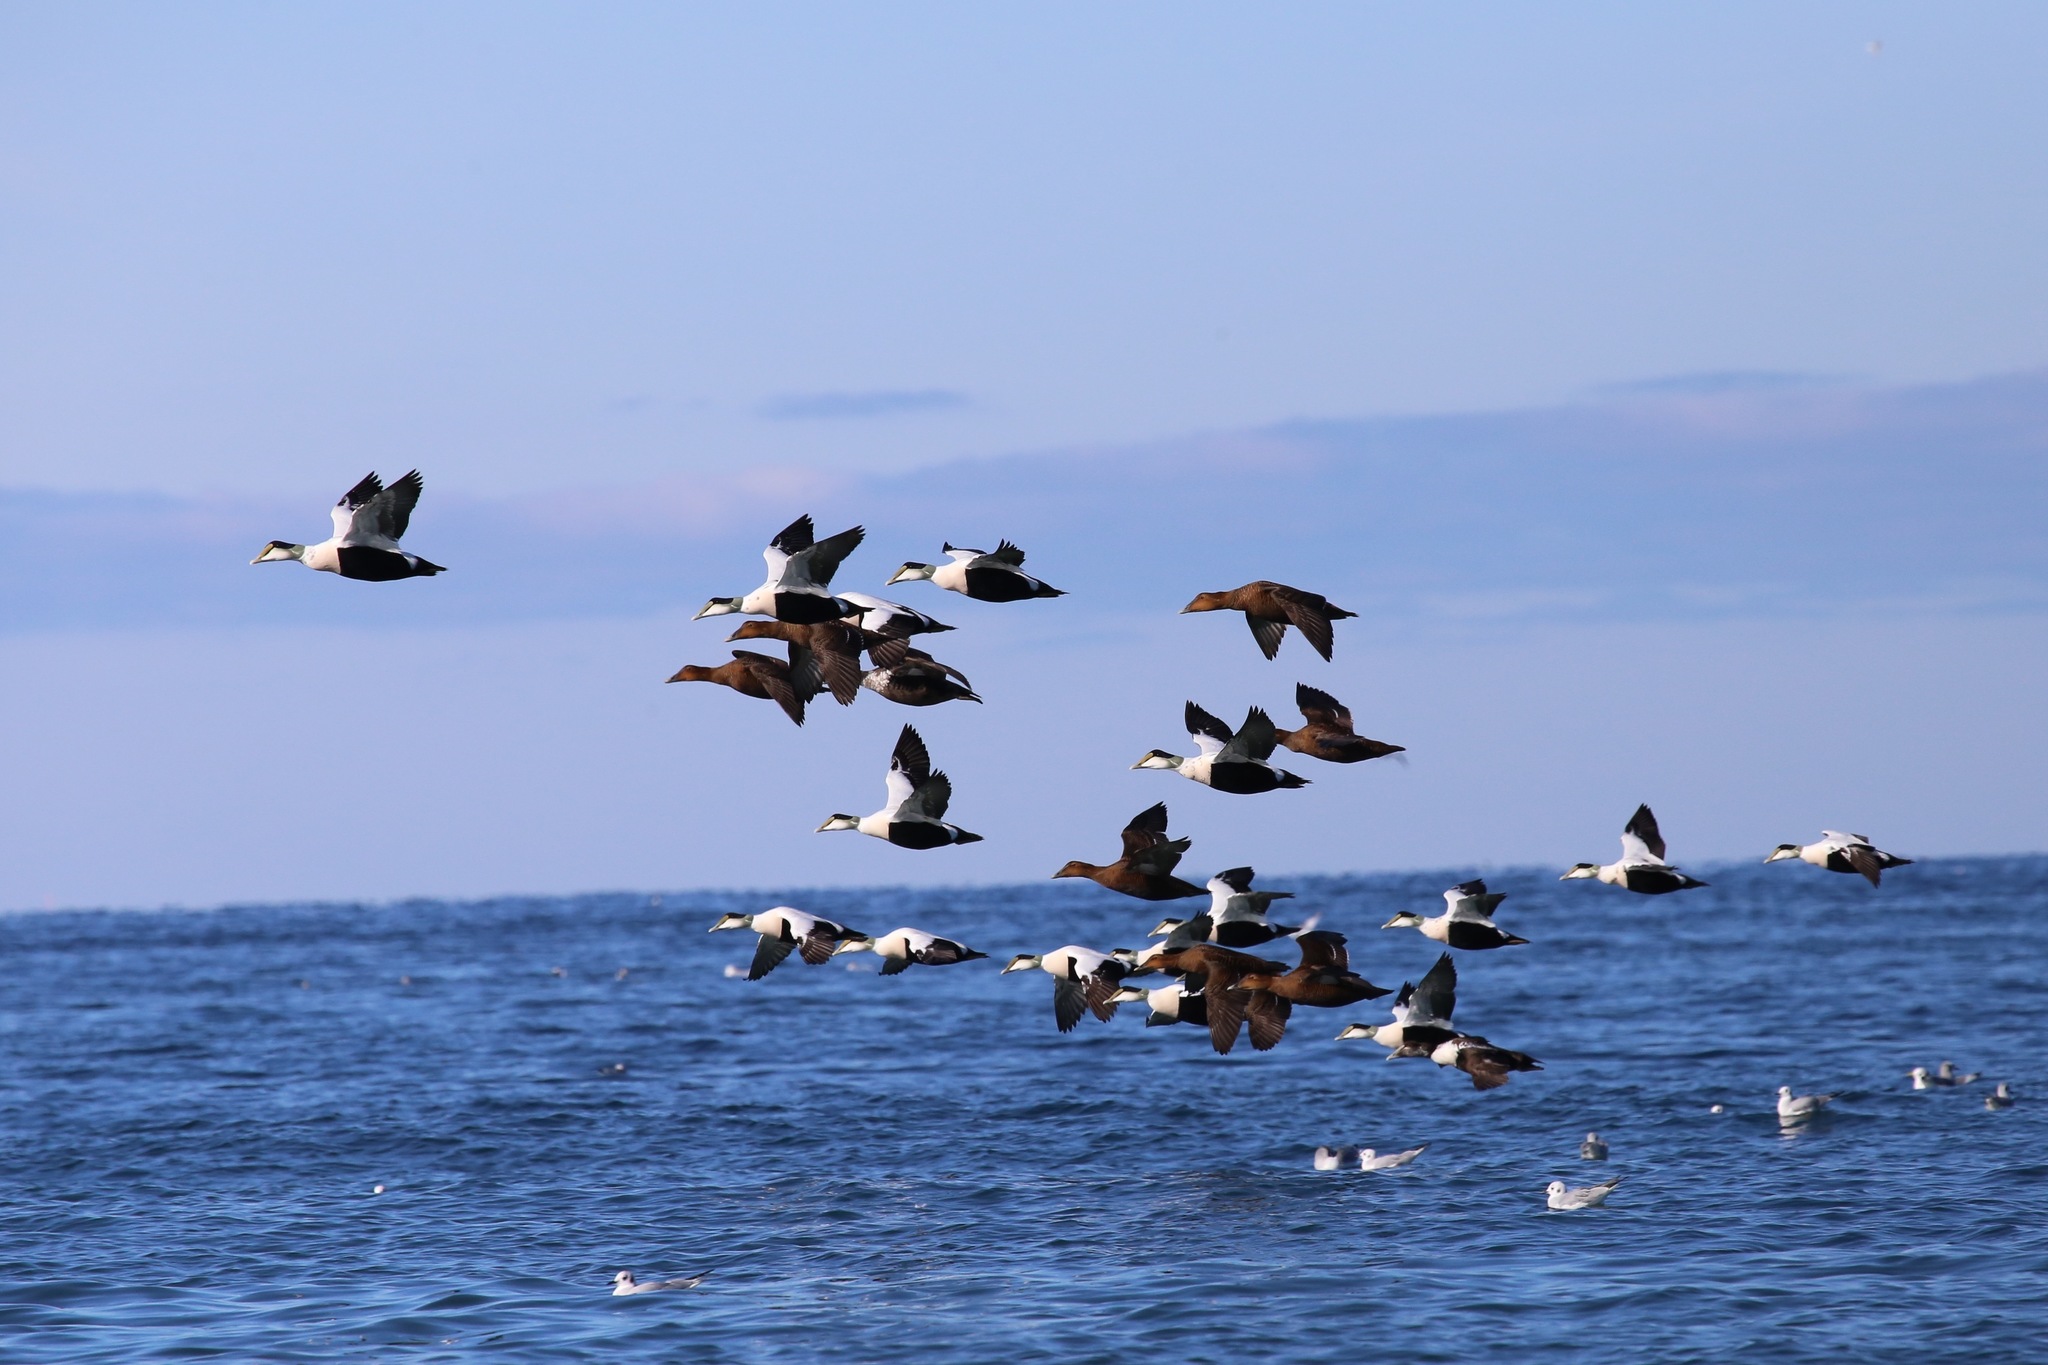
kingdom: Animalia
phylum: Chordata
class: Aves
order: Anseriformes
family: Anatidae
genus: Somateria
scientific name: Somateria mollissima
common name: Common eider
